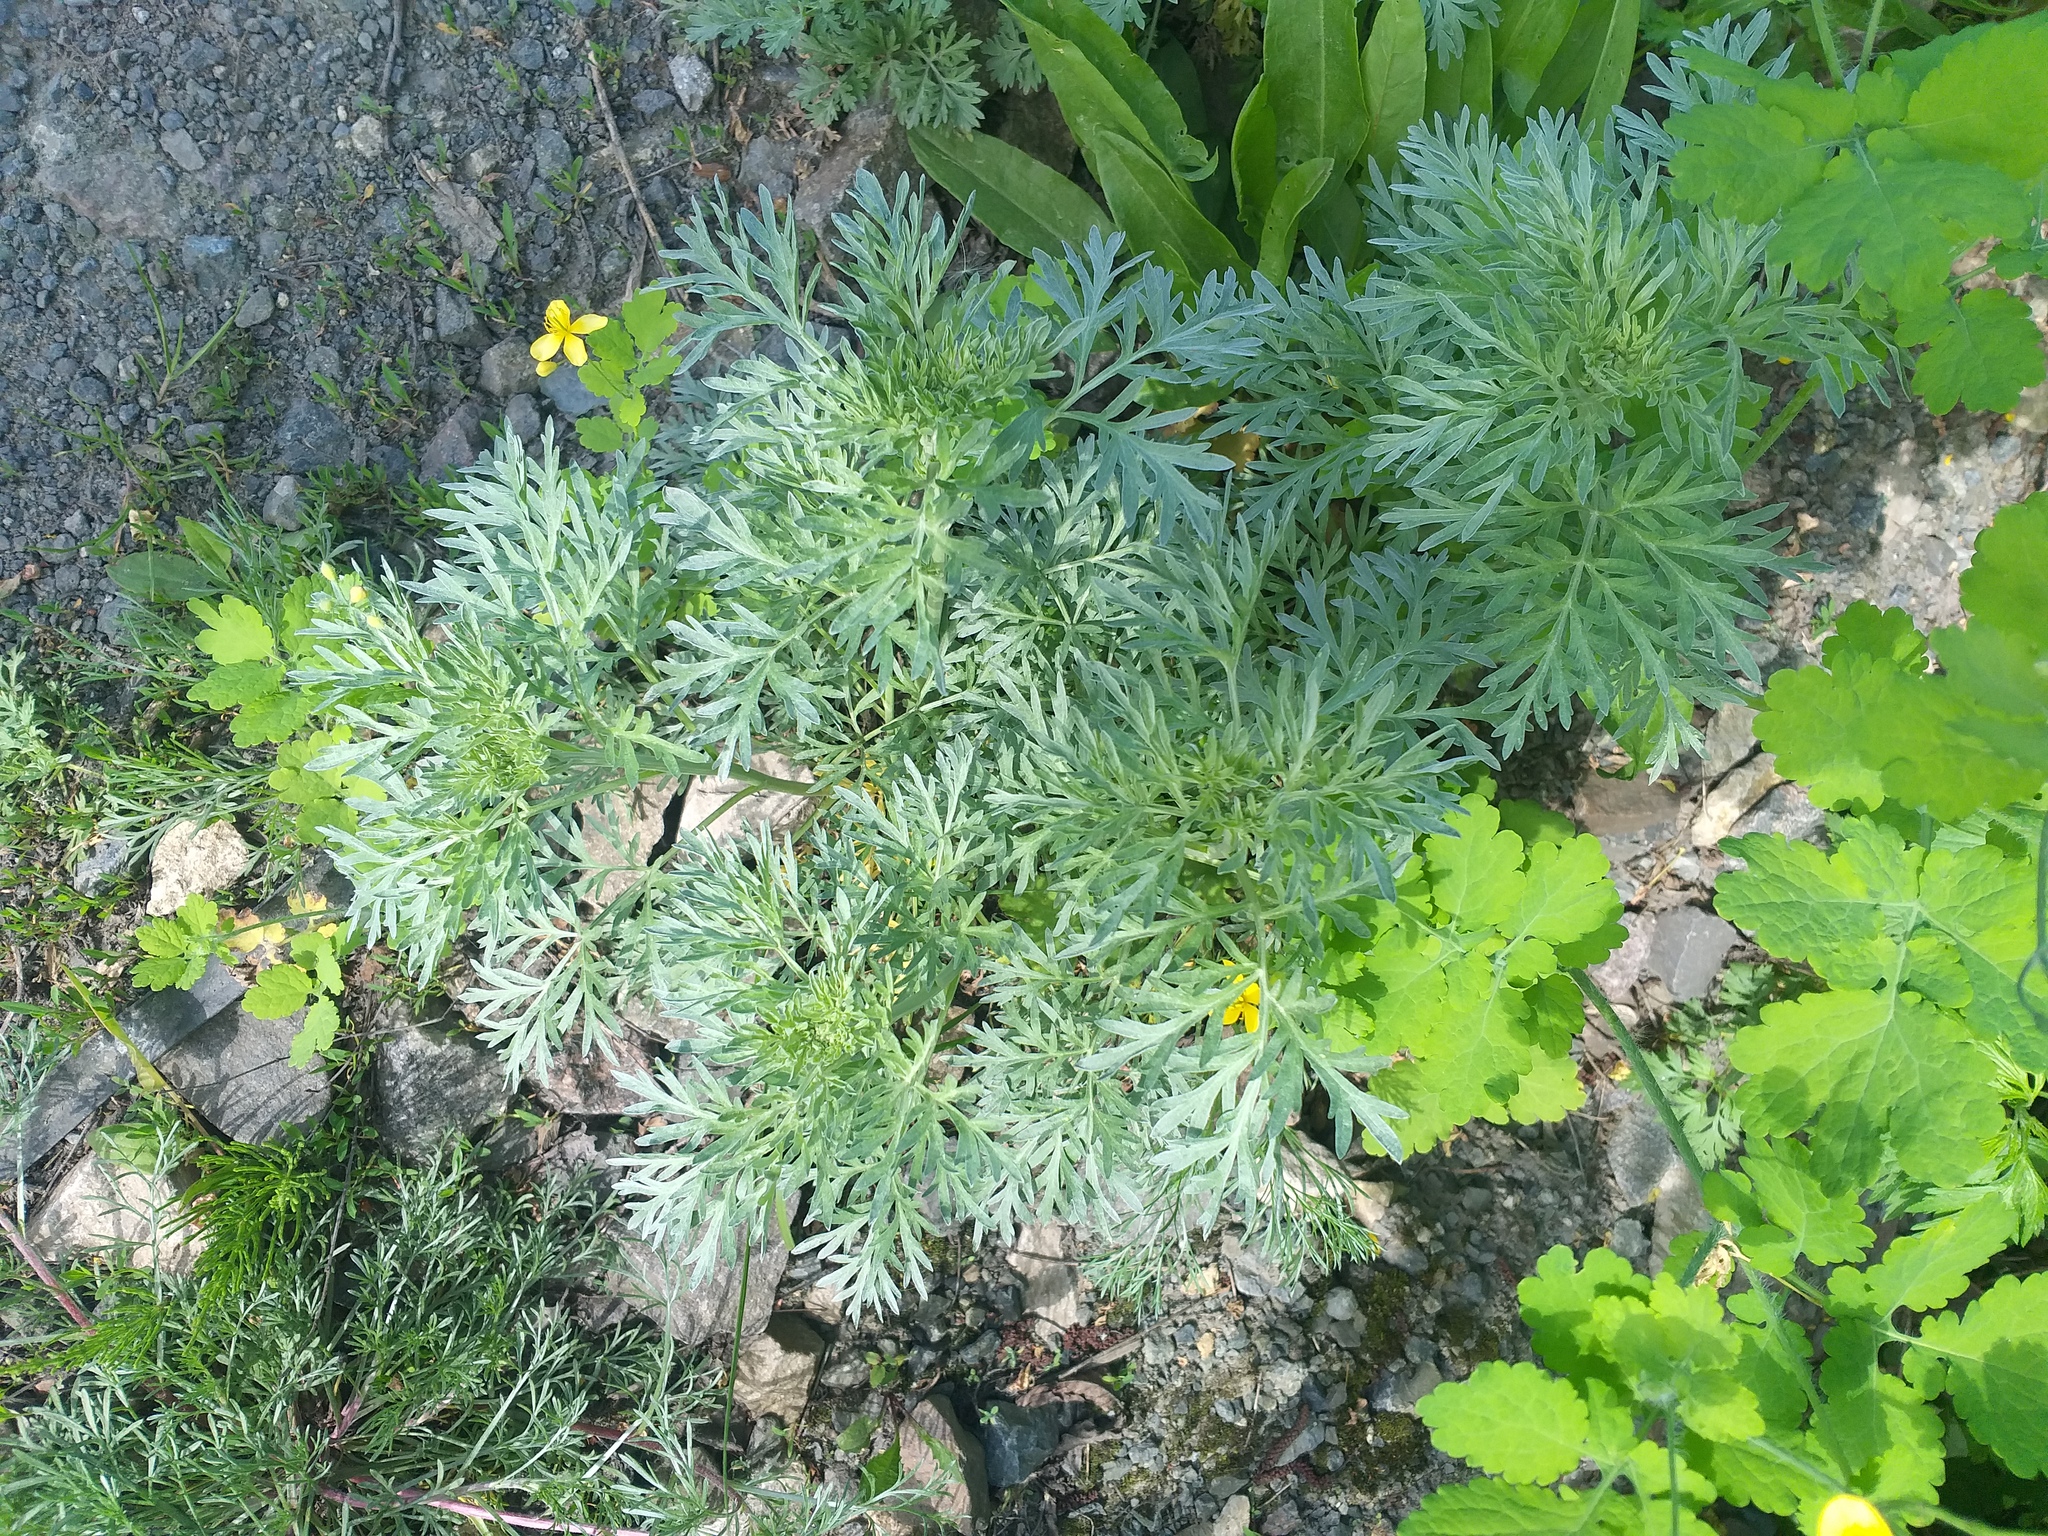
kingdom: Plantae
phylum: Tracheophyta
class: Magnoliopsida
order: Asterales
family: Asteraceae
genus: Artemisia
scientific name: Artemisia absinthium
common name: Wormwood
